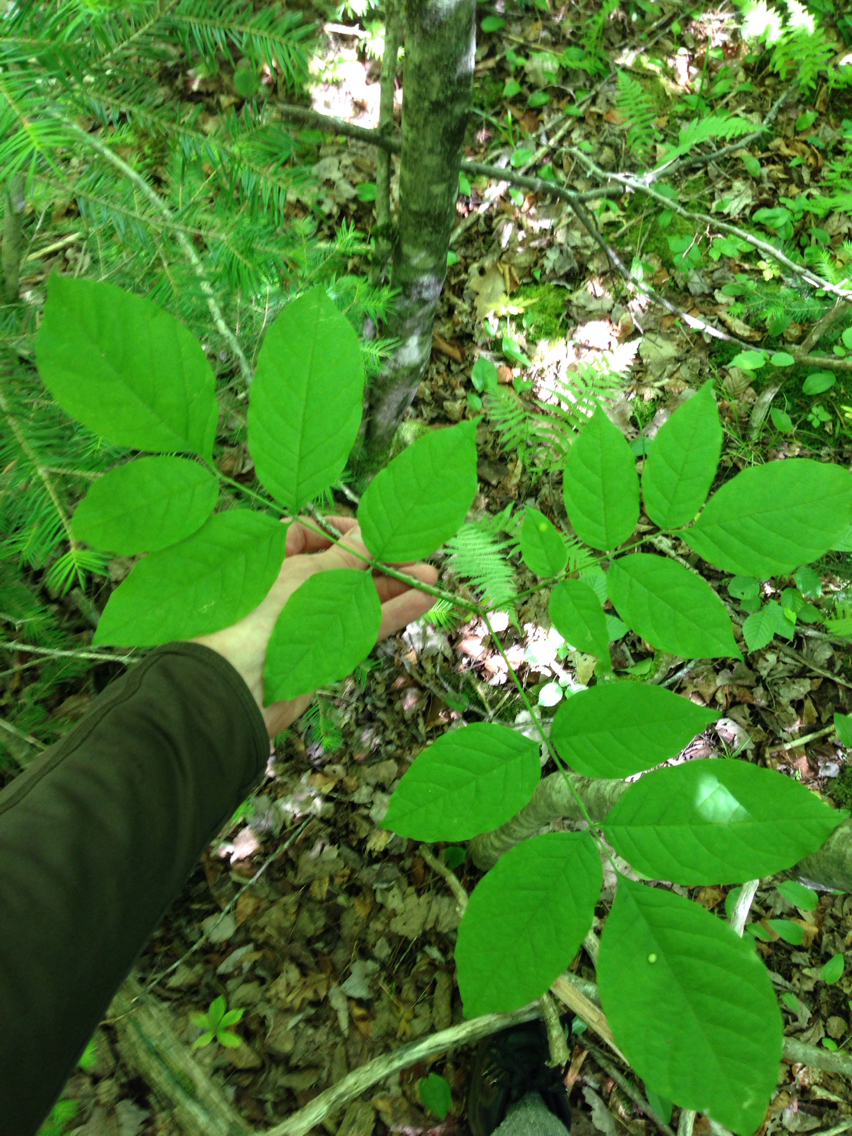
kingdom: Plantae
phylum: Tracheophyta
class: Magnoliopsida
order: Lamiales
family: Oleaceae
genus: Fraxinus
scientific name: Fraxinus americana
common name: White ash
